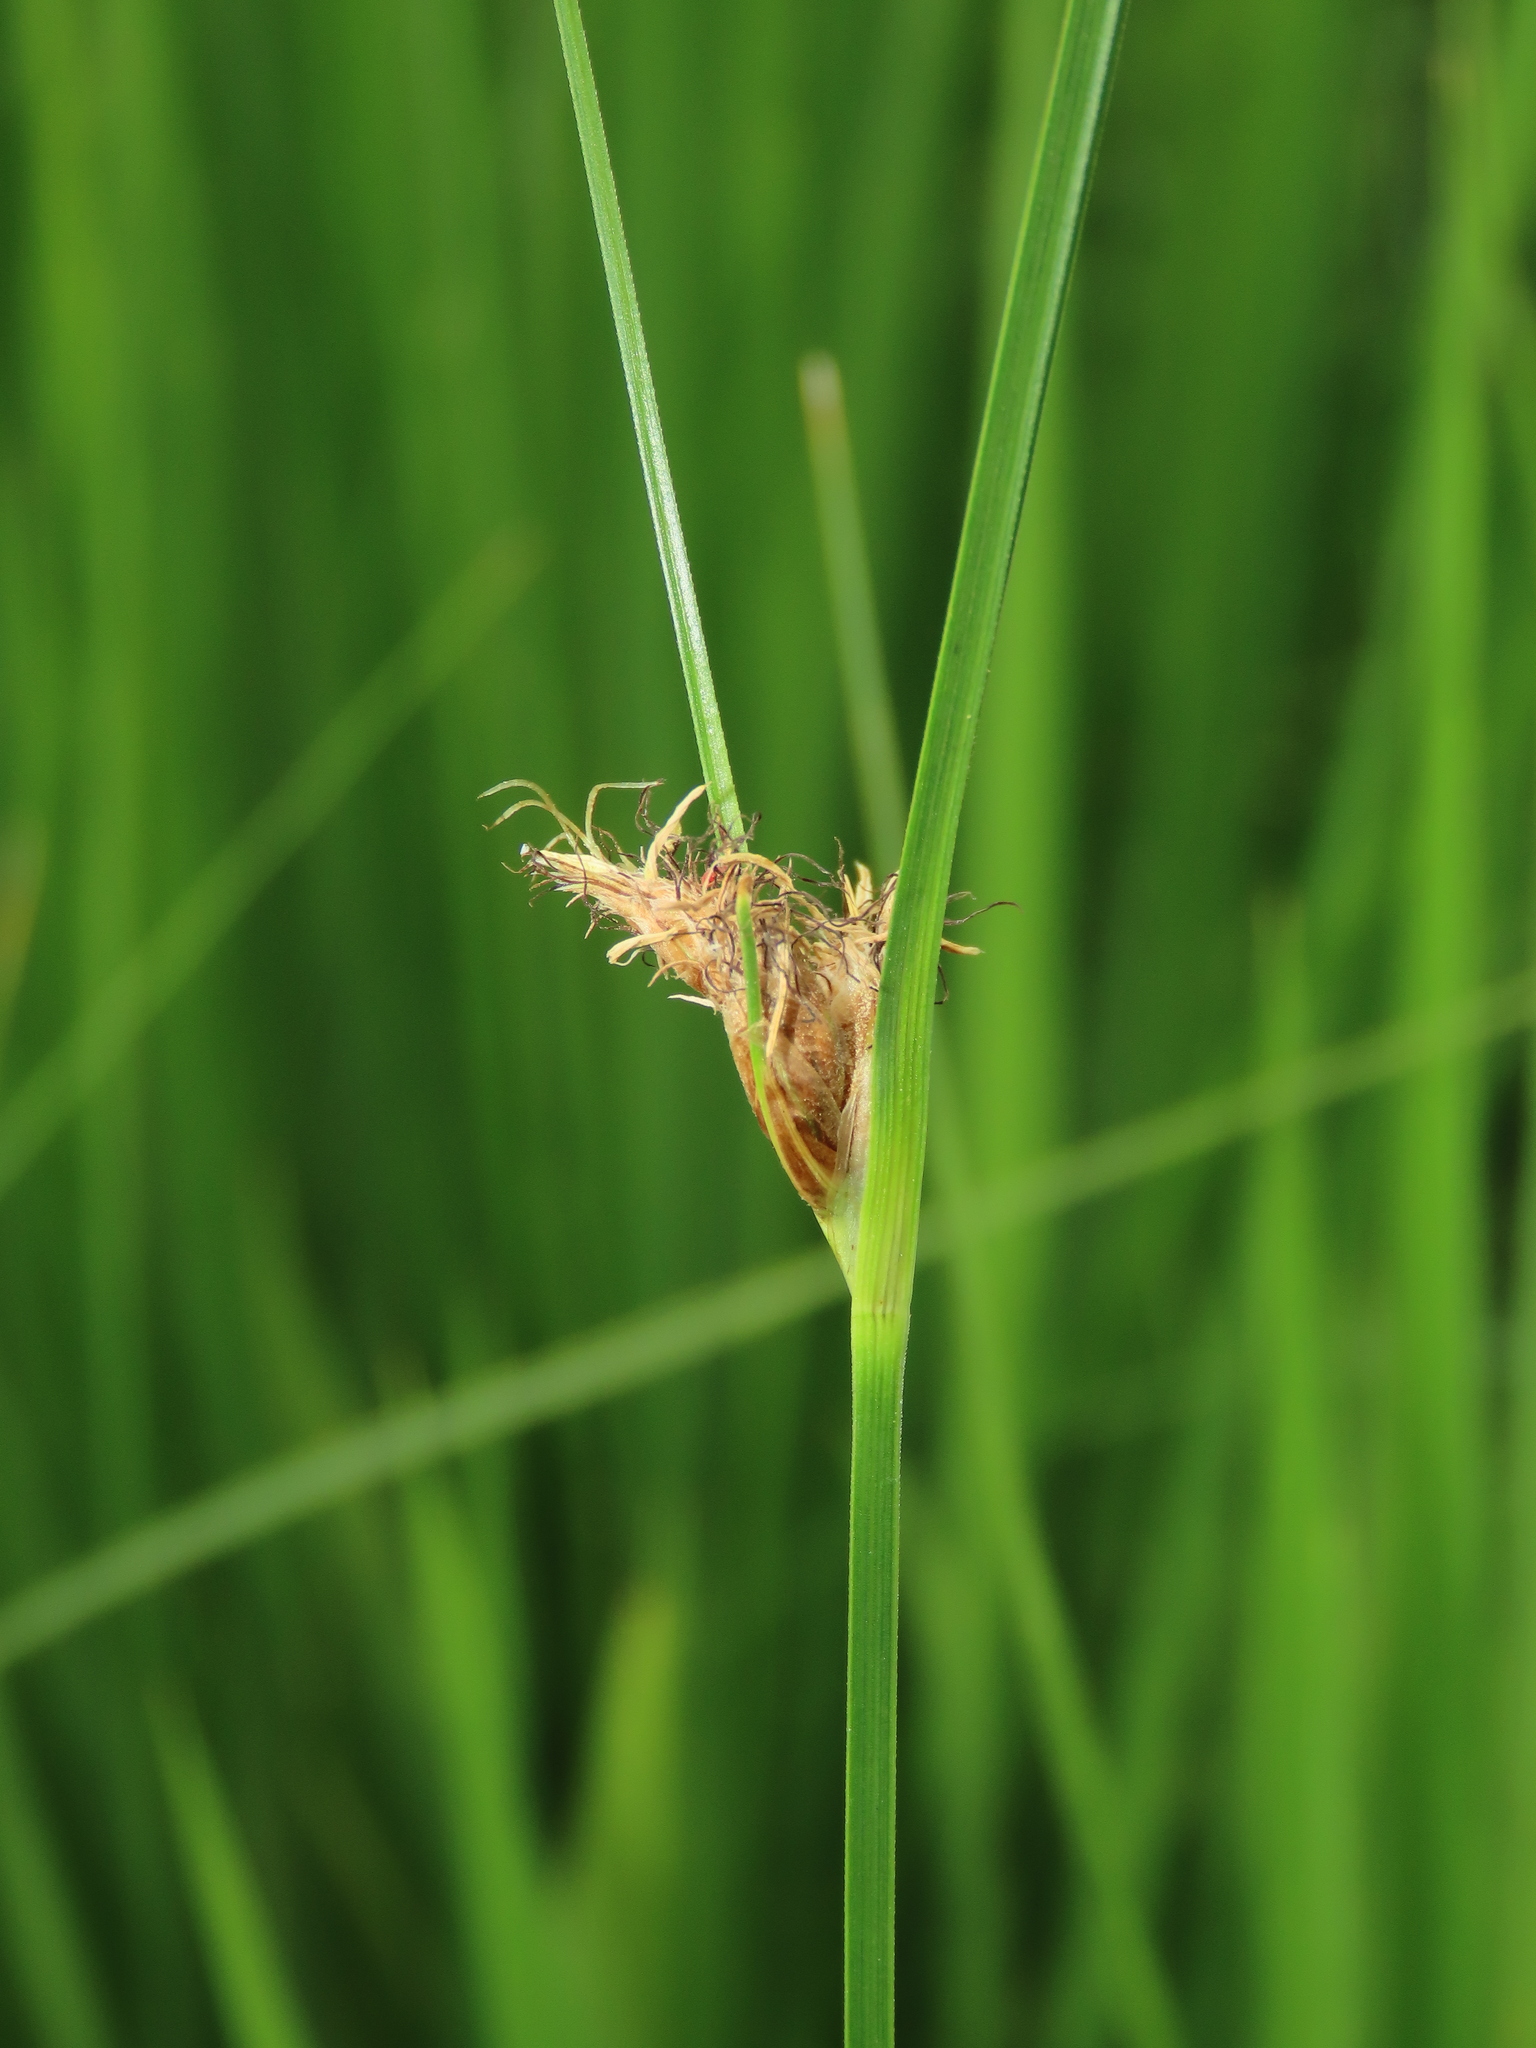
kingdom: Plantae
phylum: Tracheophyta
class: Liliopsida
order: Poales
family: Cyperaceae
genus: Bolboschoenus
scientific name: Bolboschoenus maritimus
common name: Sea club-rush
